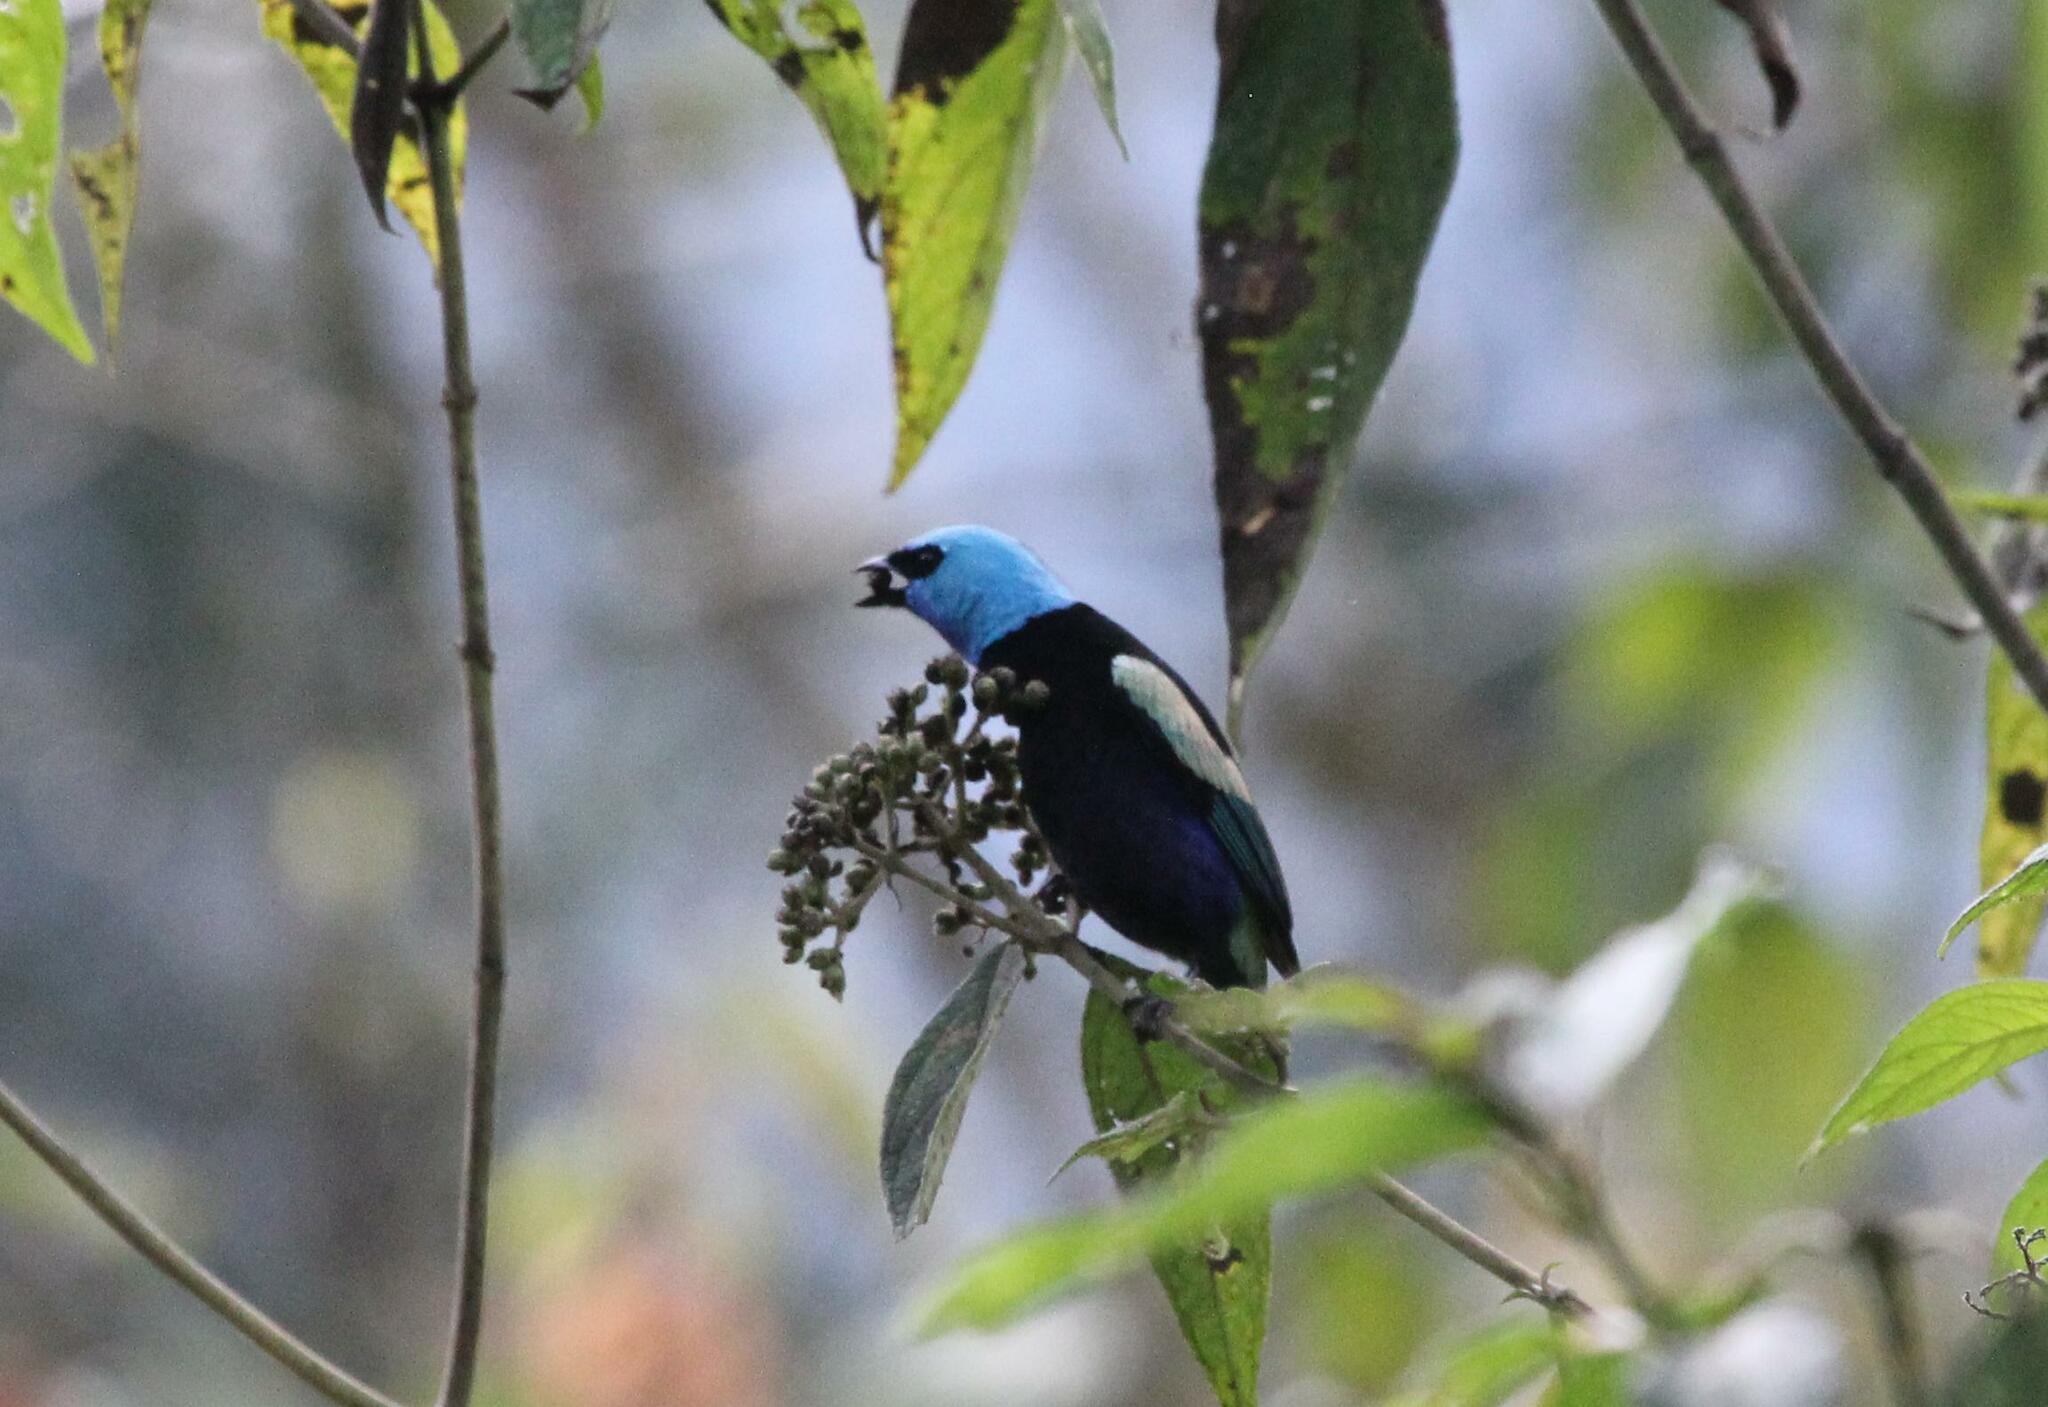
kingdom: Animalia
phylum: Chordata
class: Aves
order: Passeriformes
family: Thraupidae
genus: Stilpnia
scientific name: Stilpnia cyanicollis
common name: Blue-necked tanager
